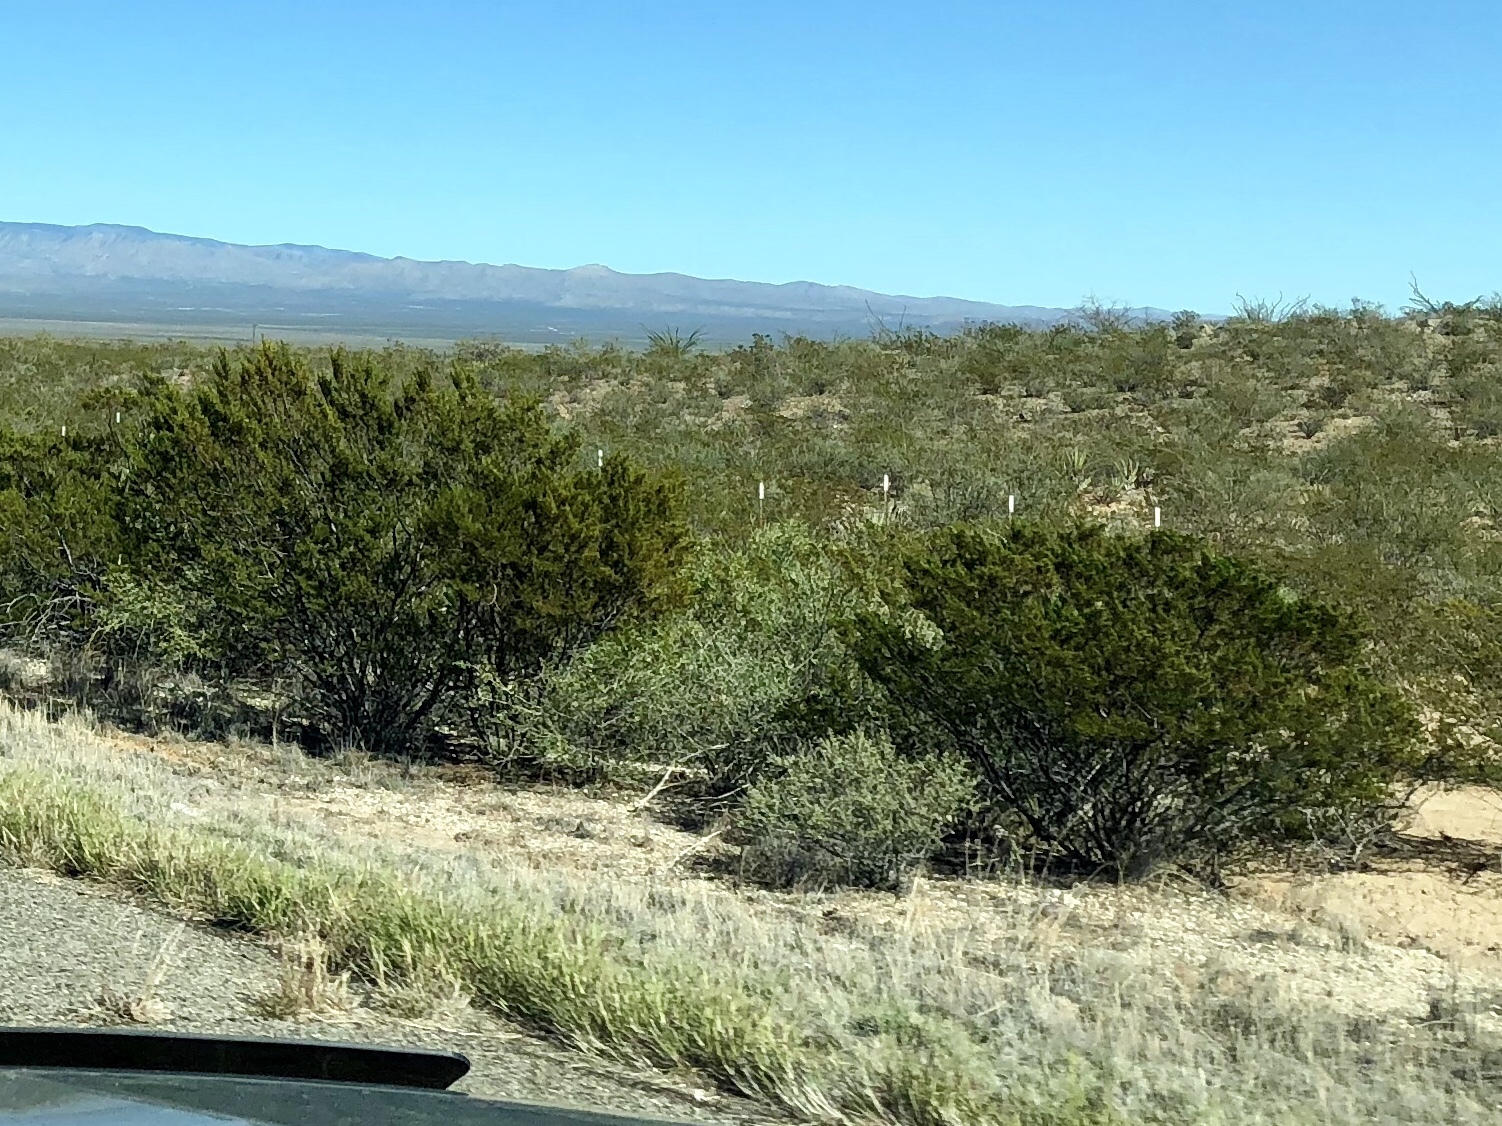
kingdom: Plantae
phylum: Tracheophyta
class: Magnoliopsida
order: Zygophyllales
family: Zygophyllaceae
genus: Larrea
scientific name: Larrea tridentata
